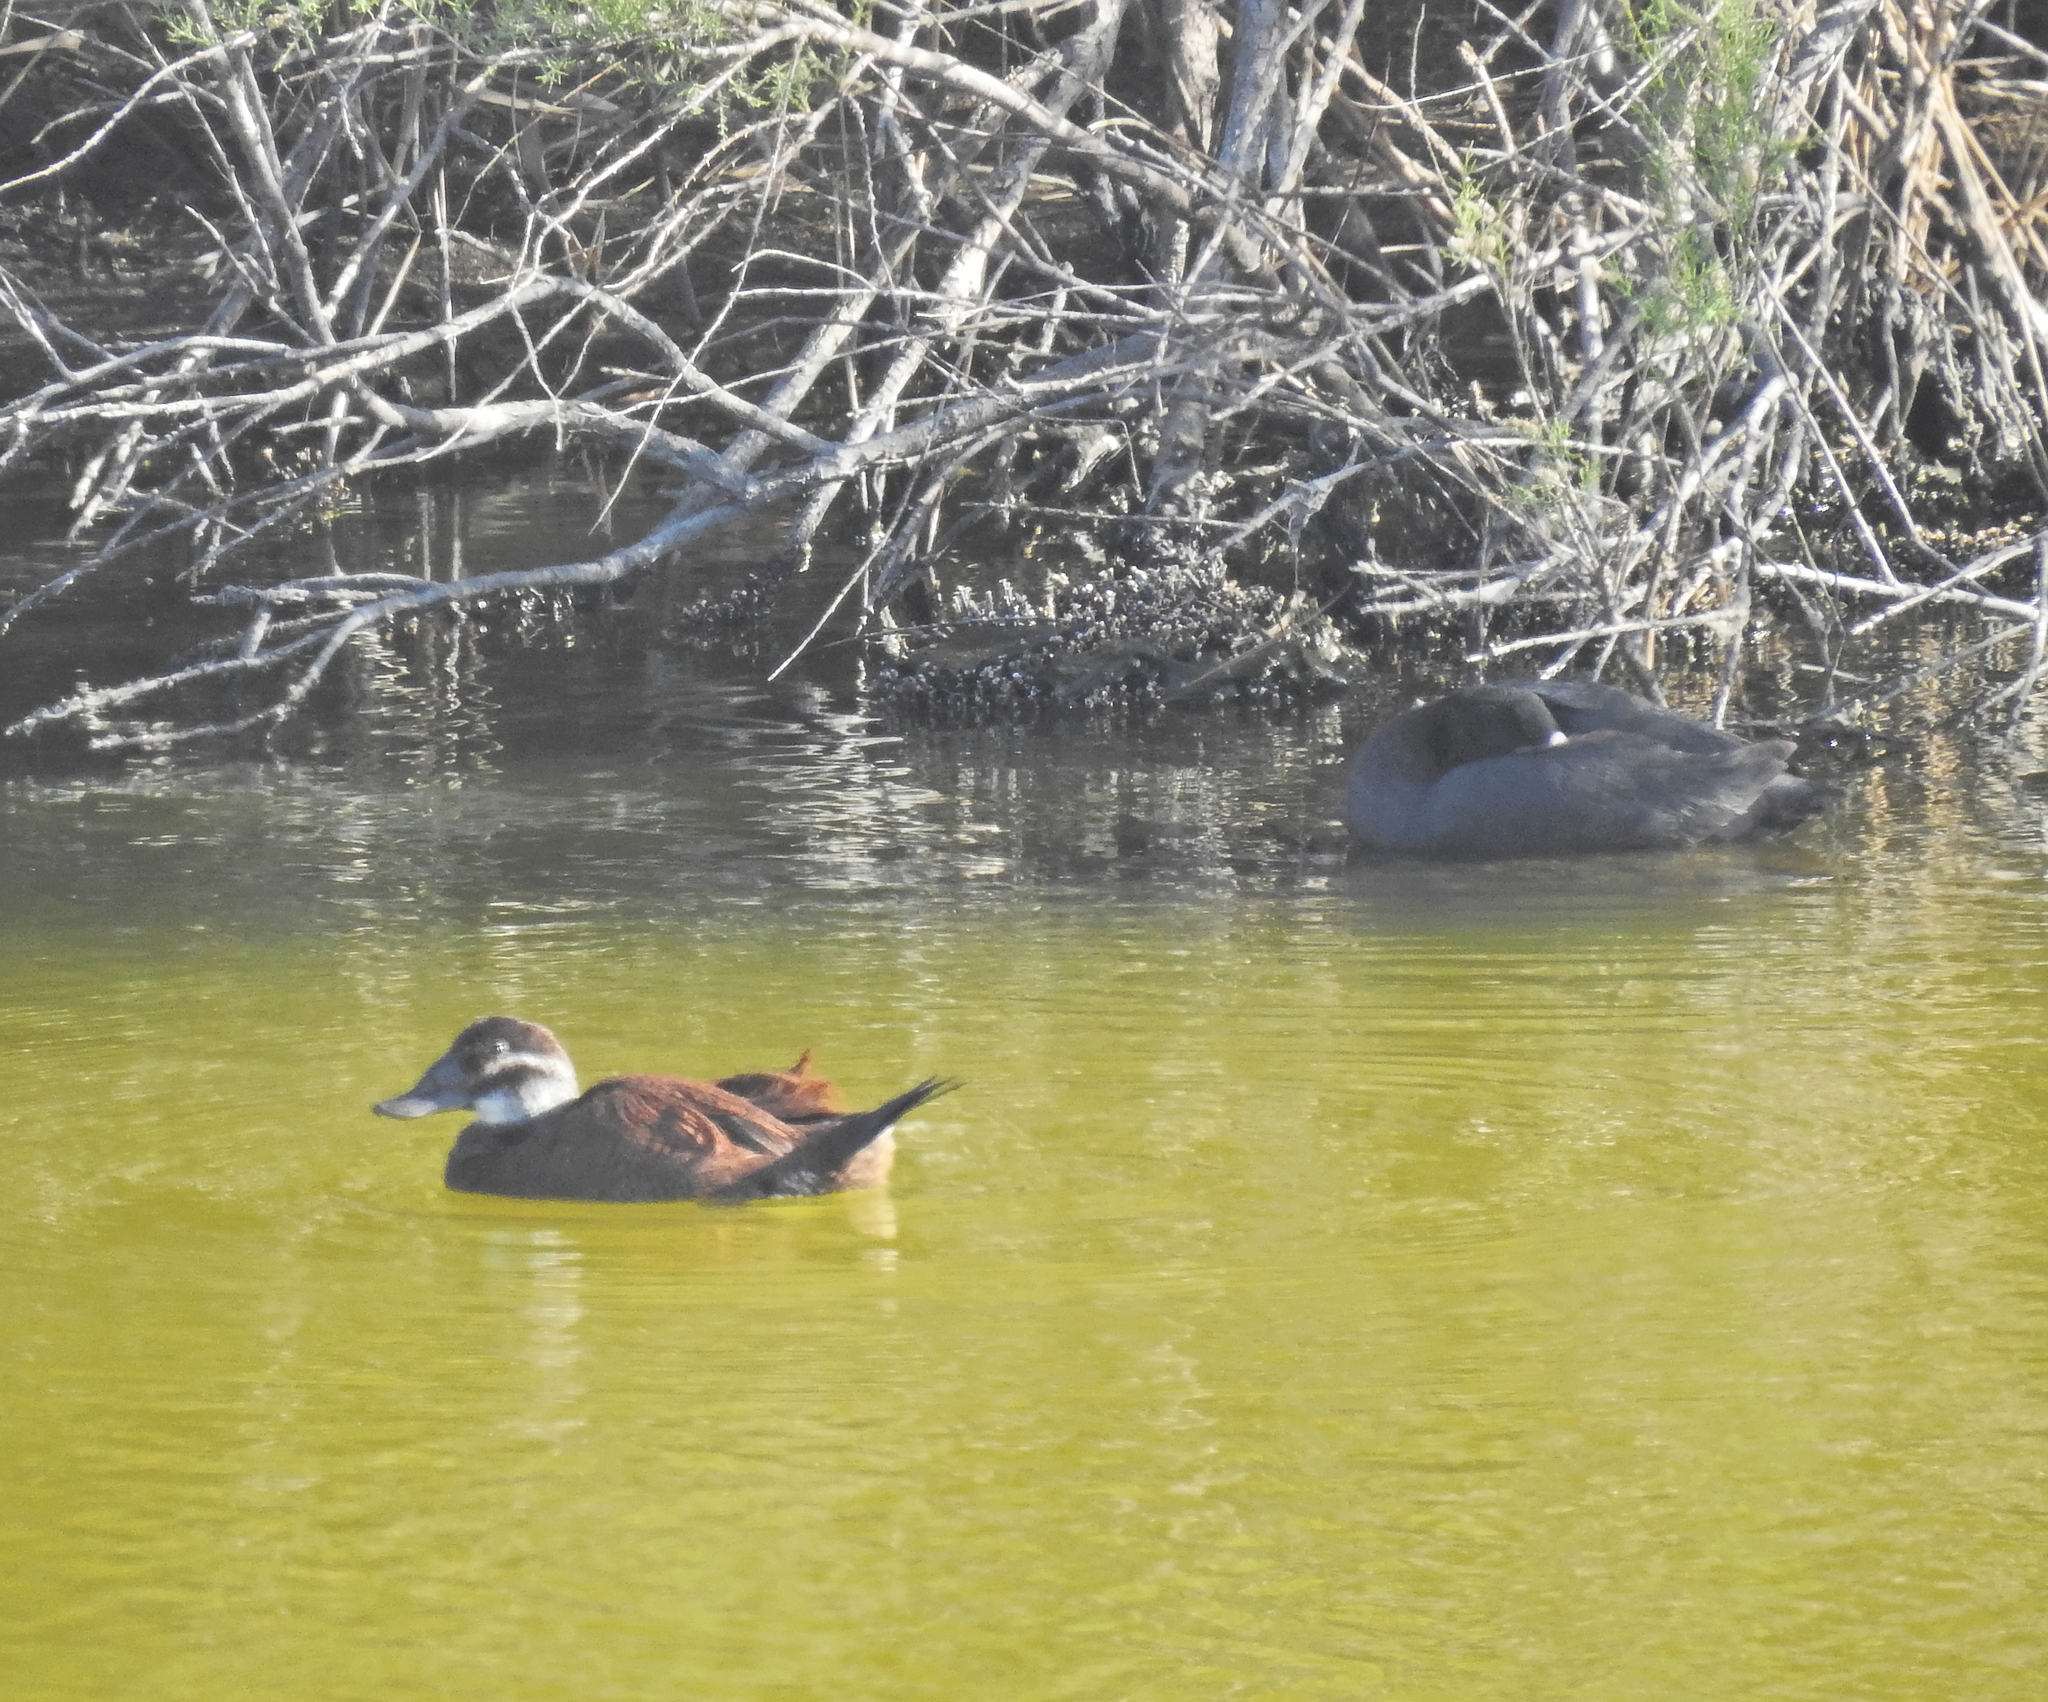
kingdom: Animalia
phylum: Chordata
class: Aves
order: Gruiformes
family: Rallidae
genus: Fulica
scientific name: Fulica atra
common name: Eurasian coot
